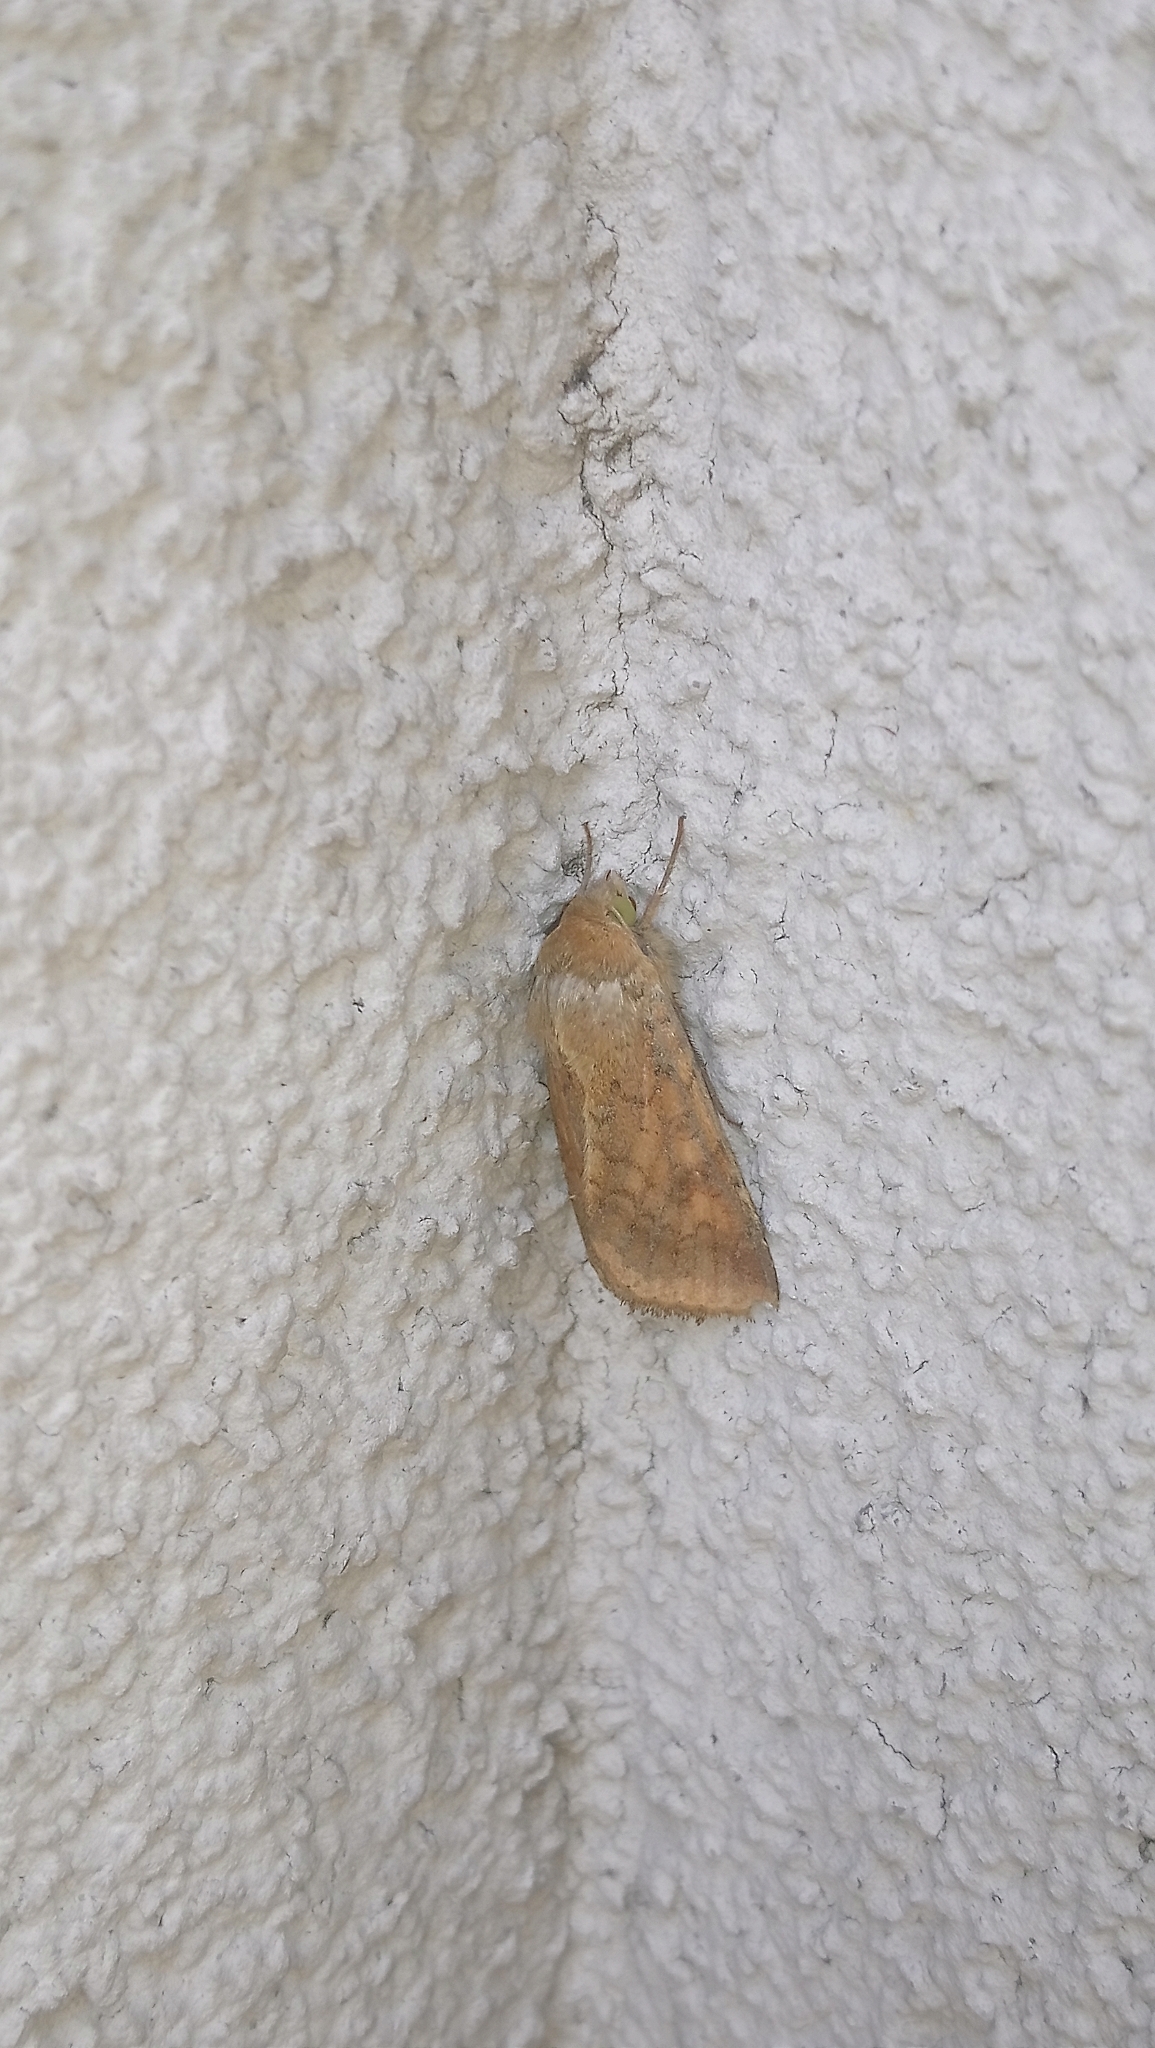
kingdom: Animalia
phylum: Arthropoda
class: Insecta
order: Lepidoptera
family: Noctuidae
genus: Helicoverpa
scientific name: Helicoverpa armigera
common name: Cotton bollworm
